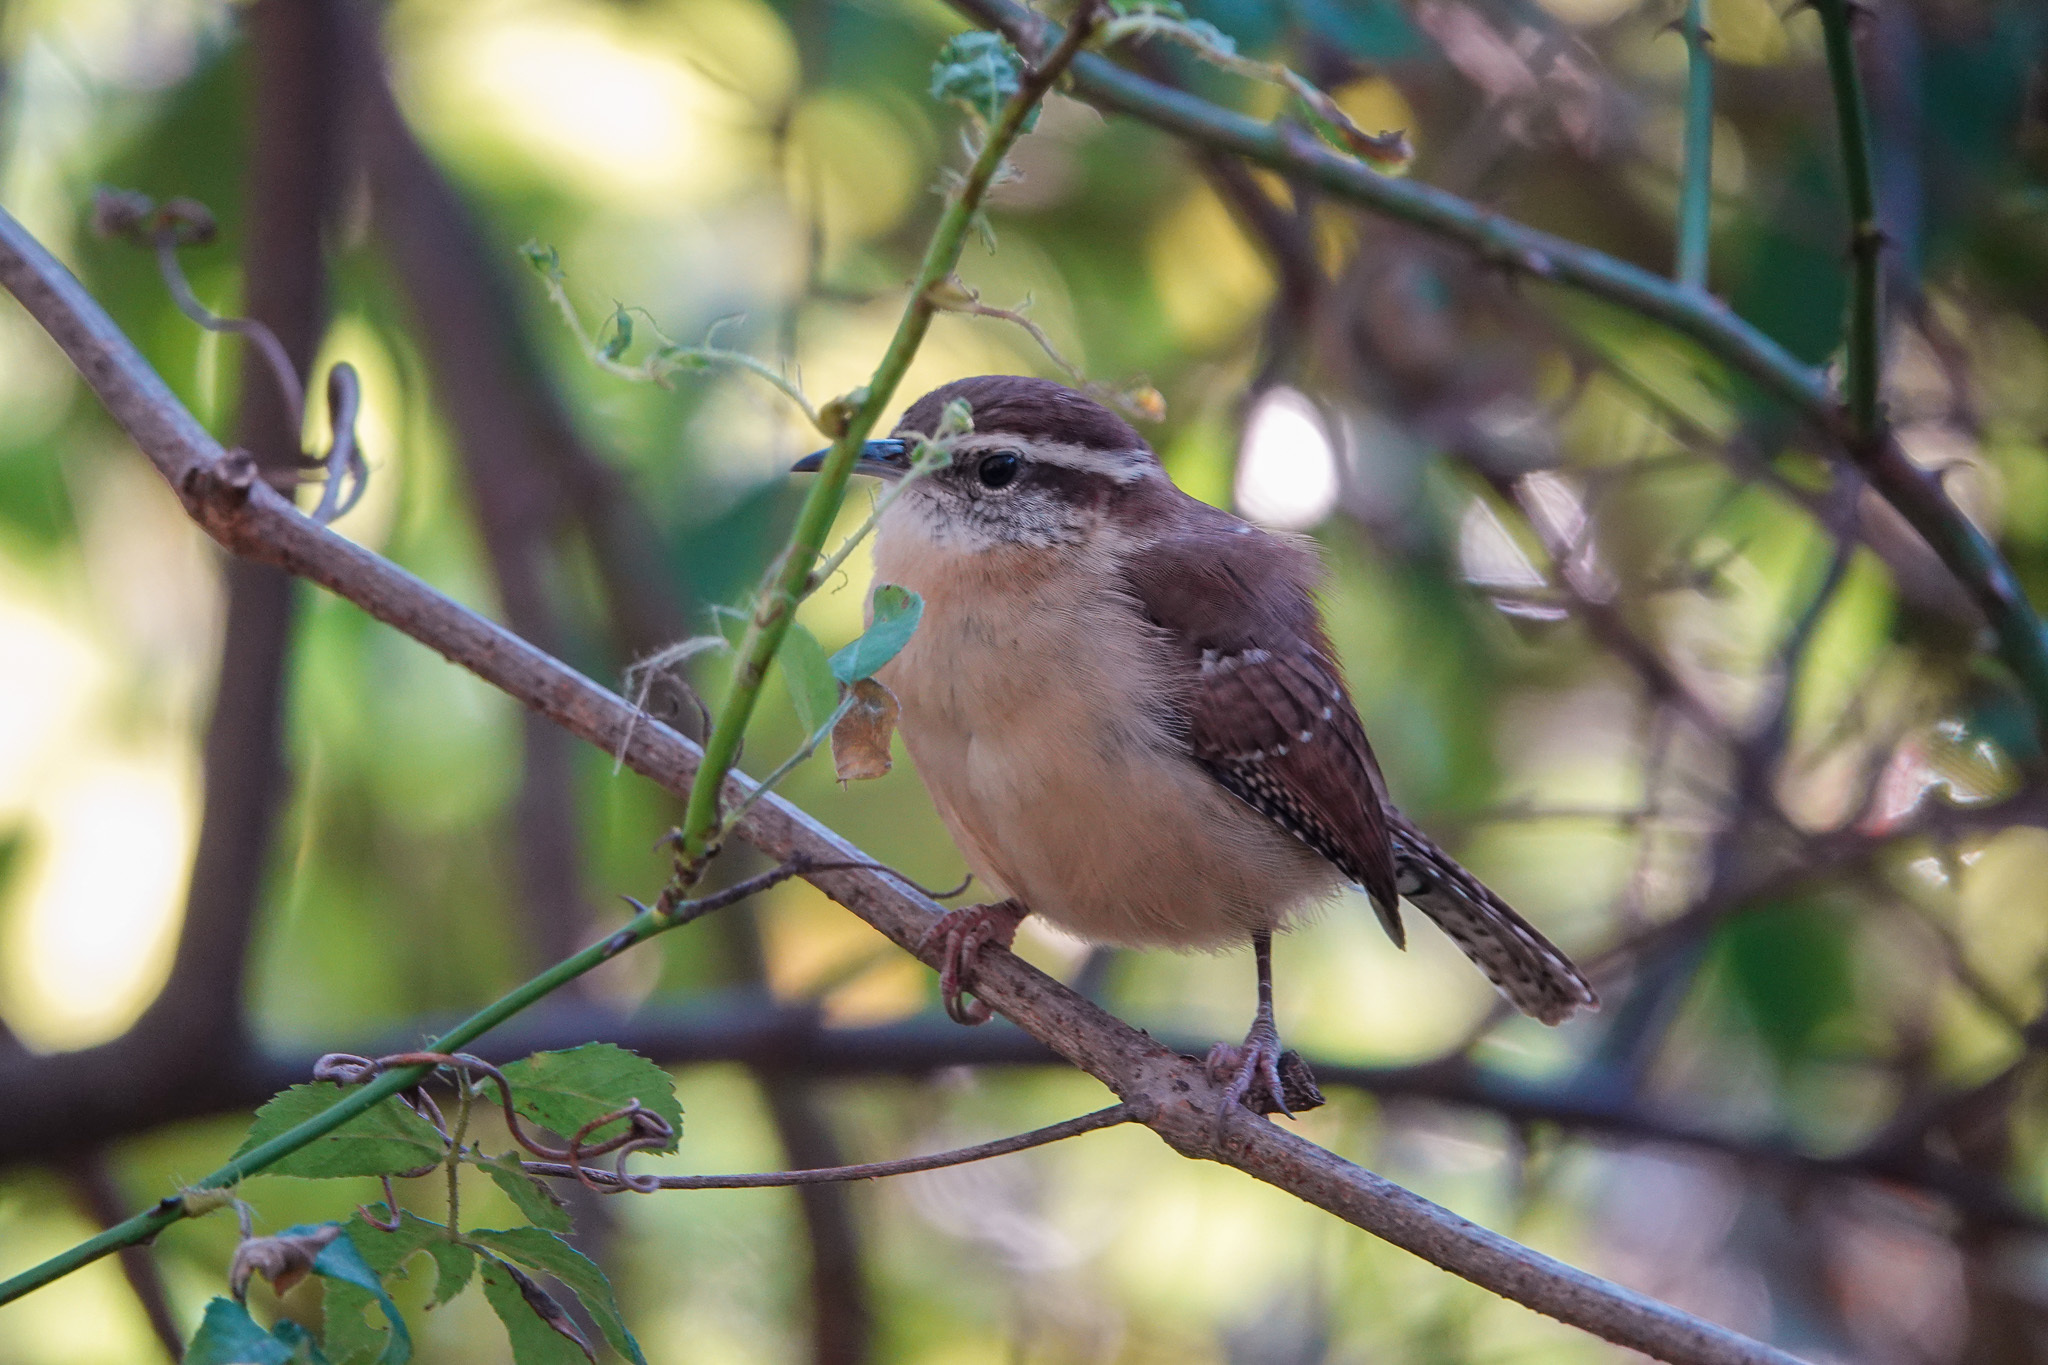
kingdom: Animalia
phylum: Chordata
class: Aves
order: Passeriformes
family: Troglodytidae
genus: Thryothorus
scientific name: Thryothorus ludovicianus
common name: Carolina wren
